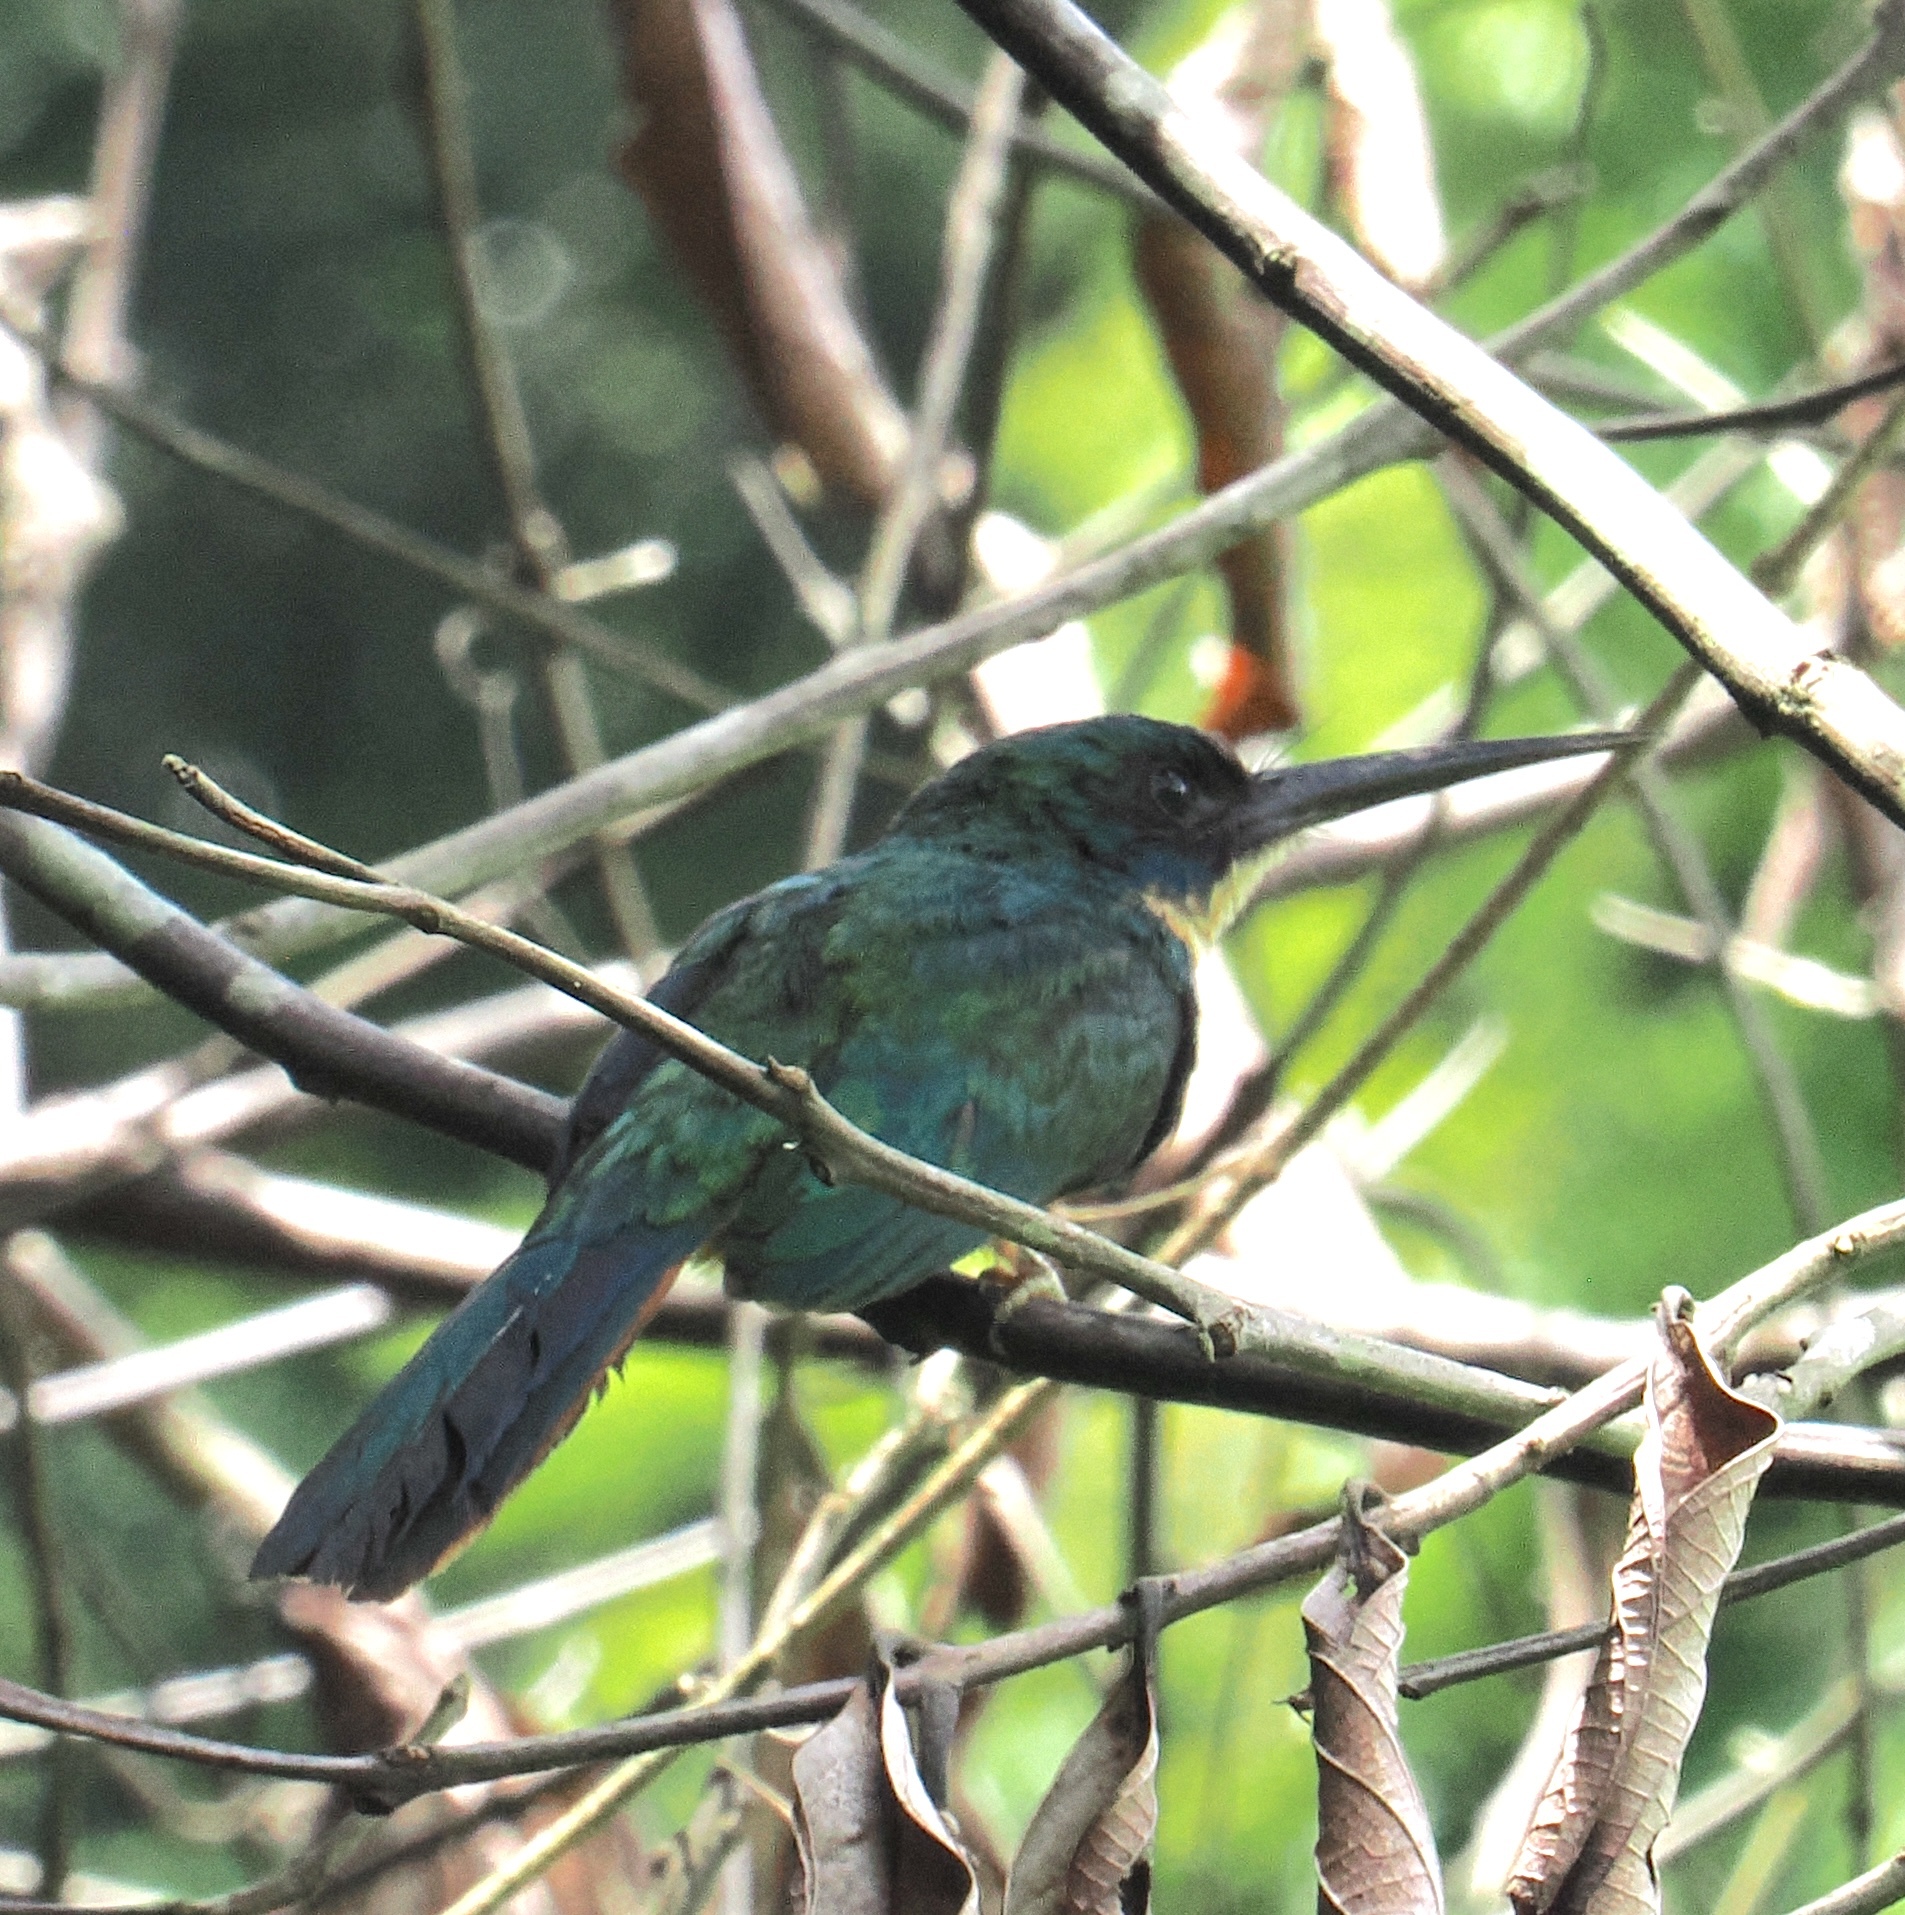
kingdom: Animalia
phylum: Chordata
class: Aves
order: Piciformes
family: Galbulidae
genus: Galbula
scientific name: Galbula ruficauda
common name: Rufous-tailed jacamar
